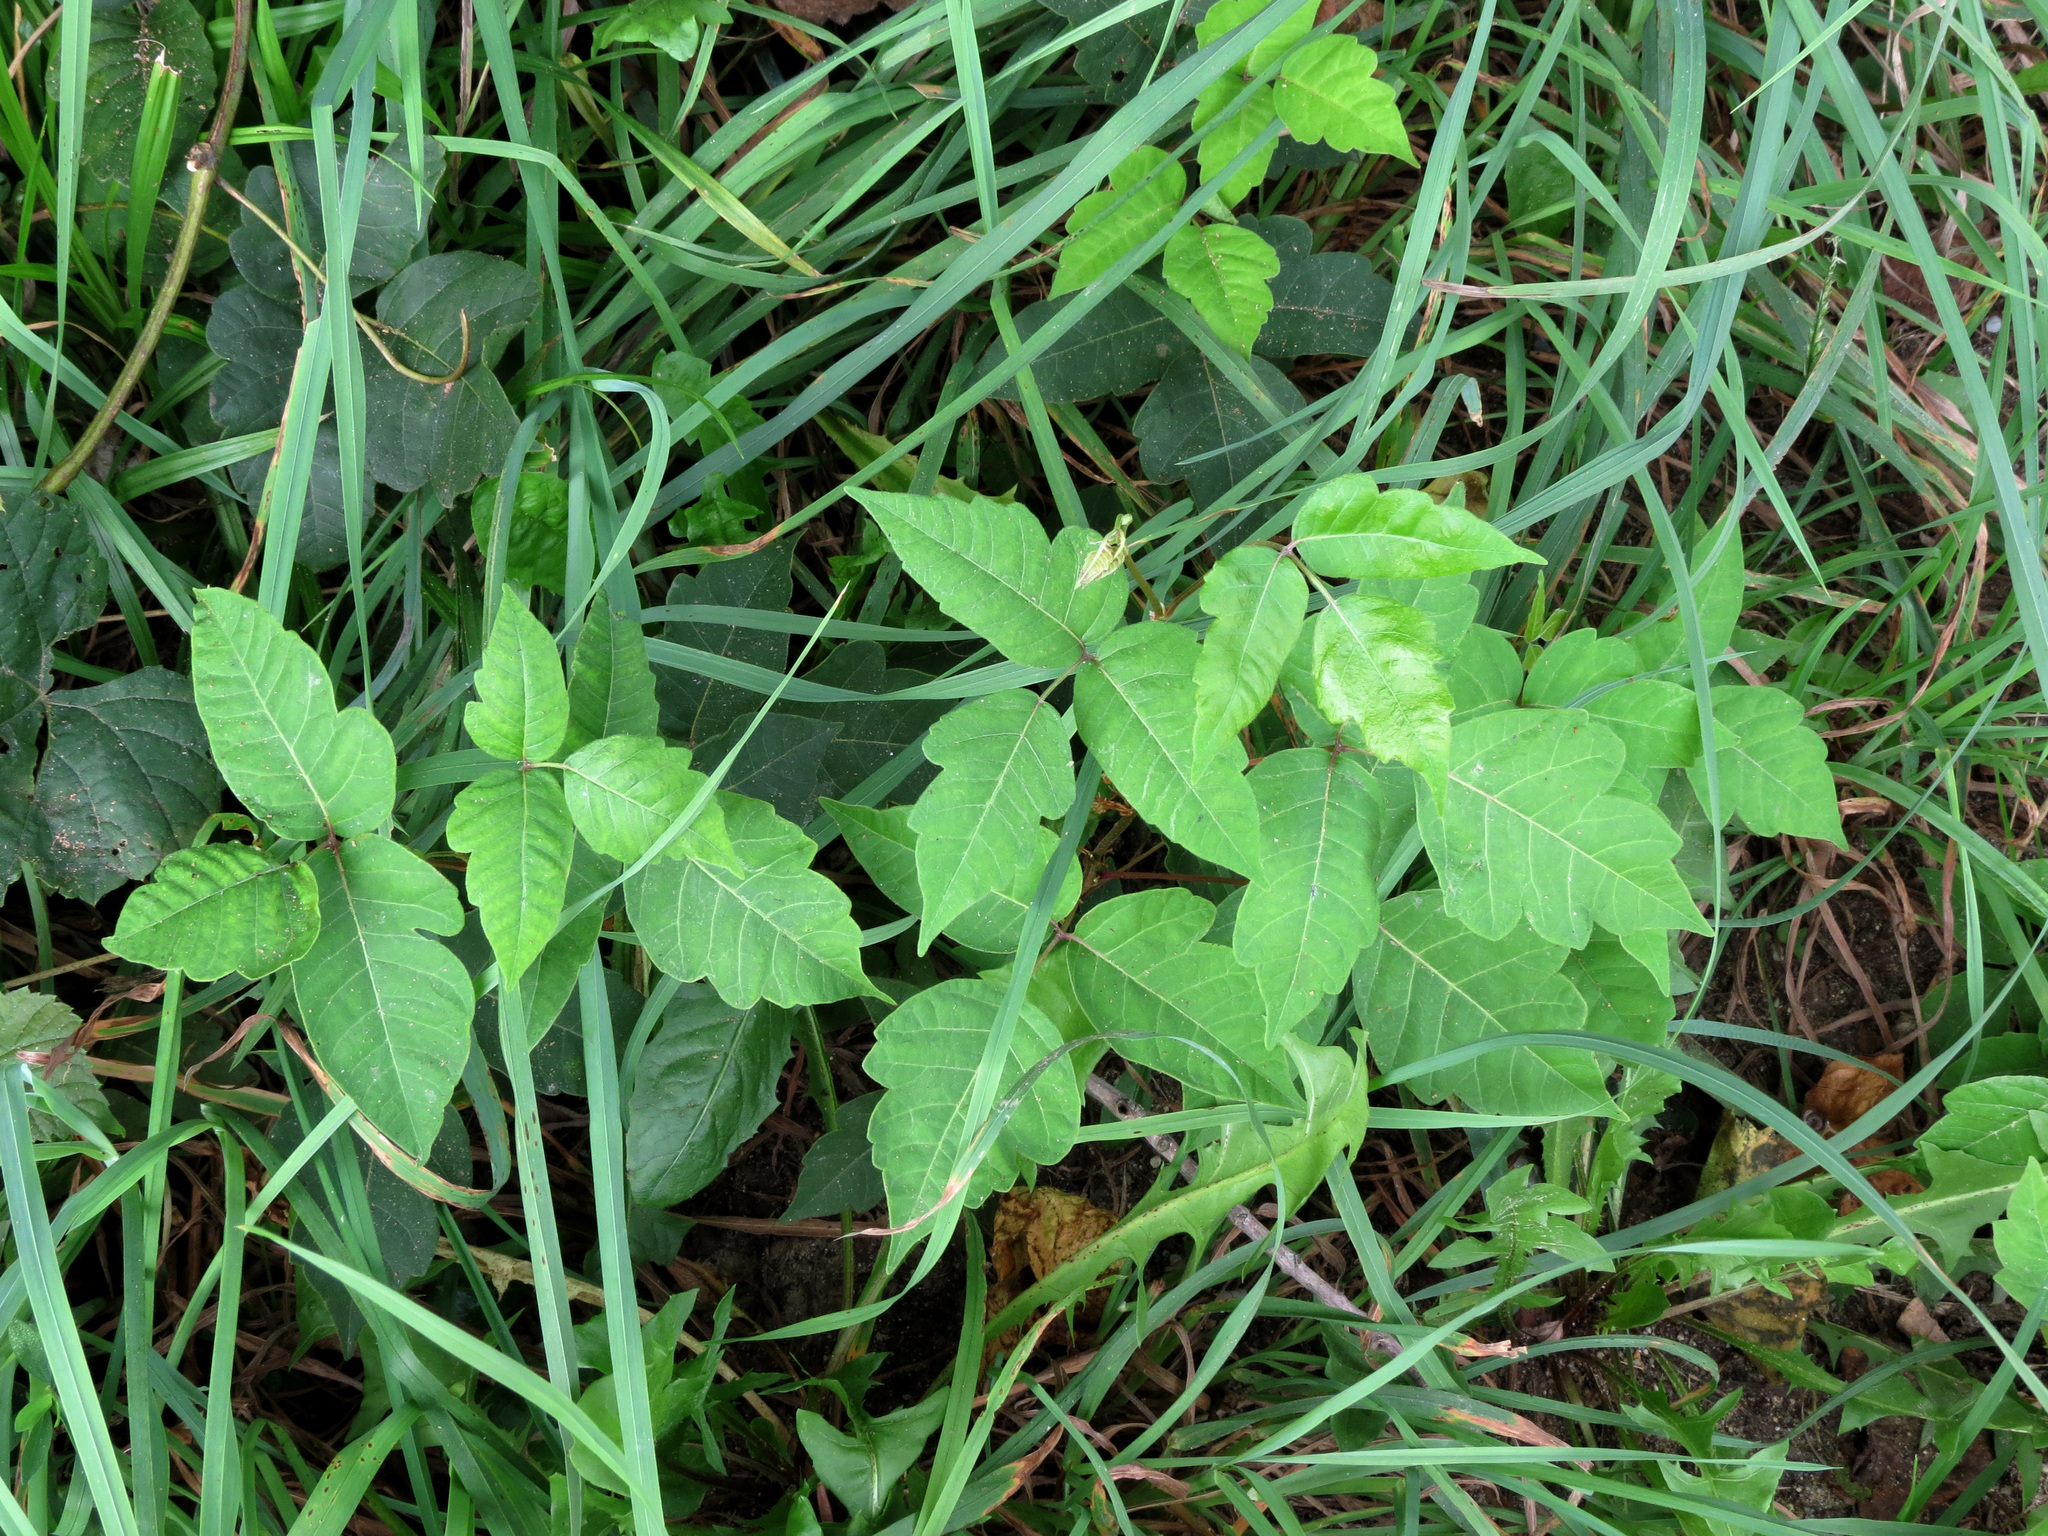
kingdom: Plantae
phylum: Tracheophyta
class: Magnoliopsida
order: Sapindales
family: Anacardiaceae
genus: Toxicodendron
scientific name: Toxicodendron radicans
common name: Poison ivy
